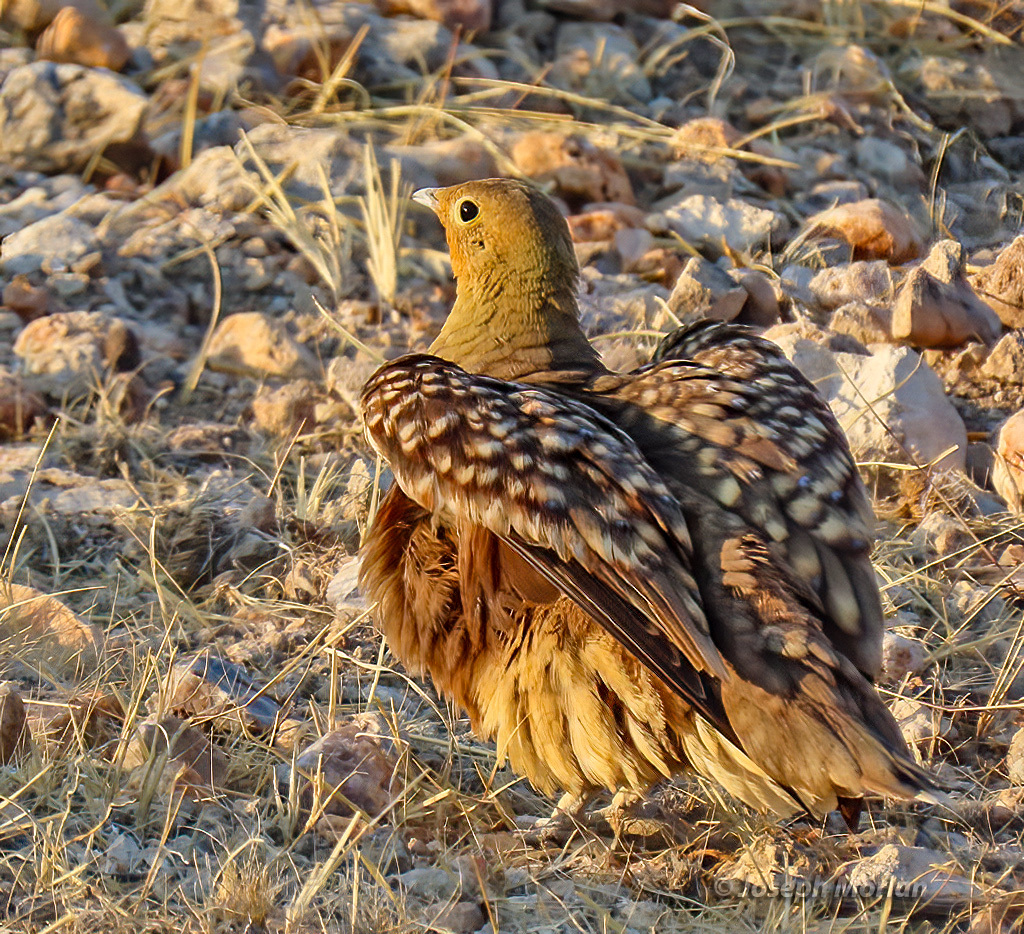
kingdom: Animalia
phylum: Chordata
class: Aves
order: Pteroclidiformes
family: Pteroclididae
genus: Pterocles
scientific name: Pterocles namaqua
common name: Namaqua sandgrouse
